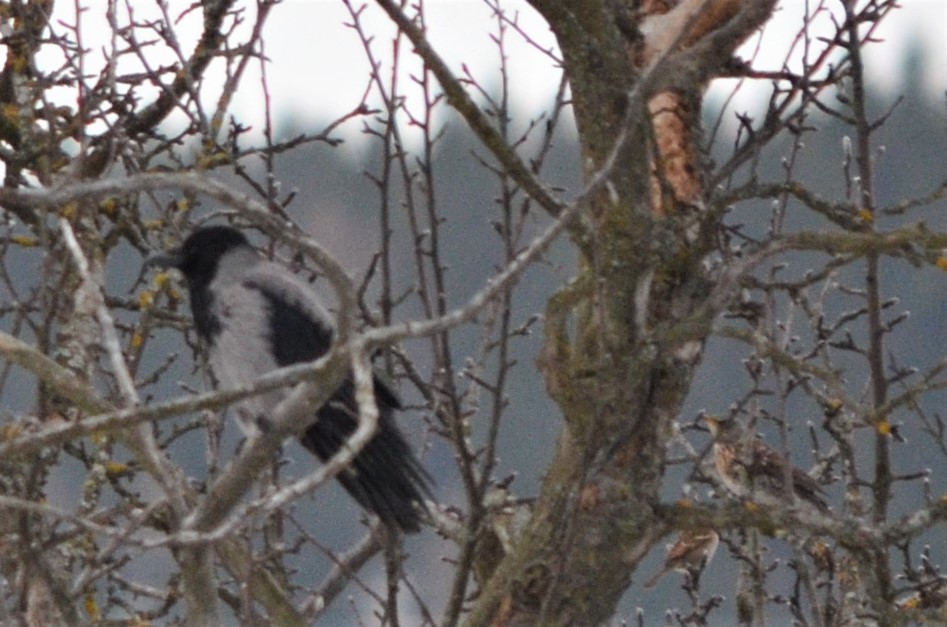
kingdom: Animalia
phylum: Chordata
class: Aves
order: Passeriformes
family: Corvidae
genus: Corvus
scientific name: Corvus cornix
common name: Hooded crow
